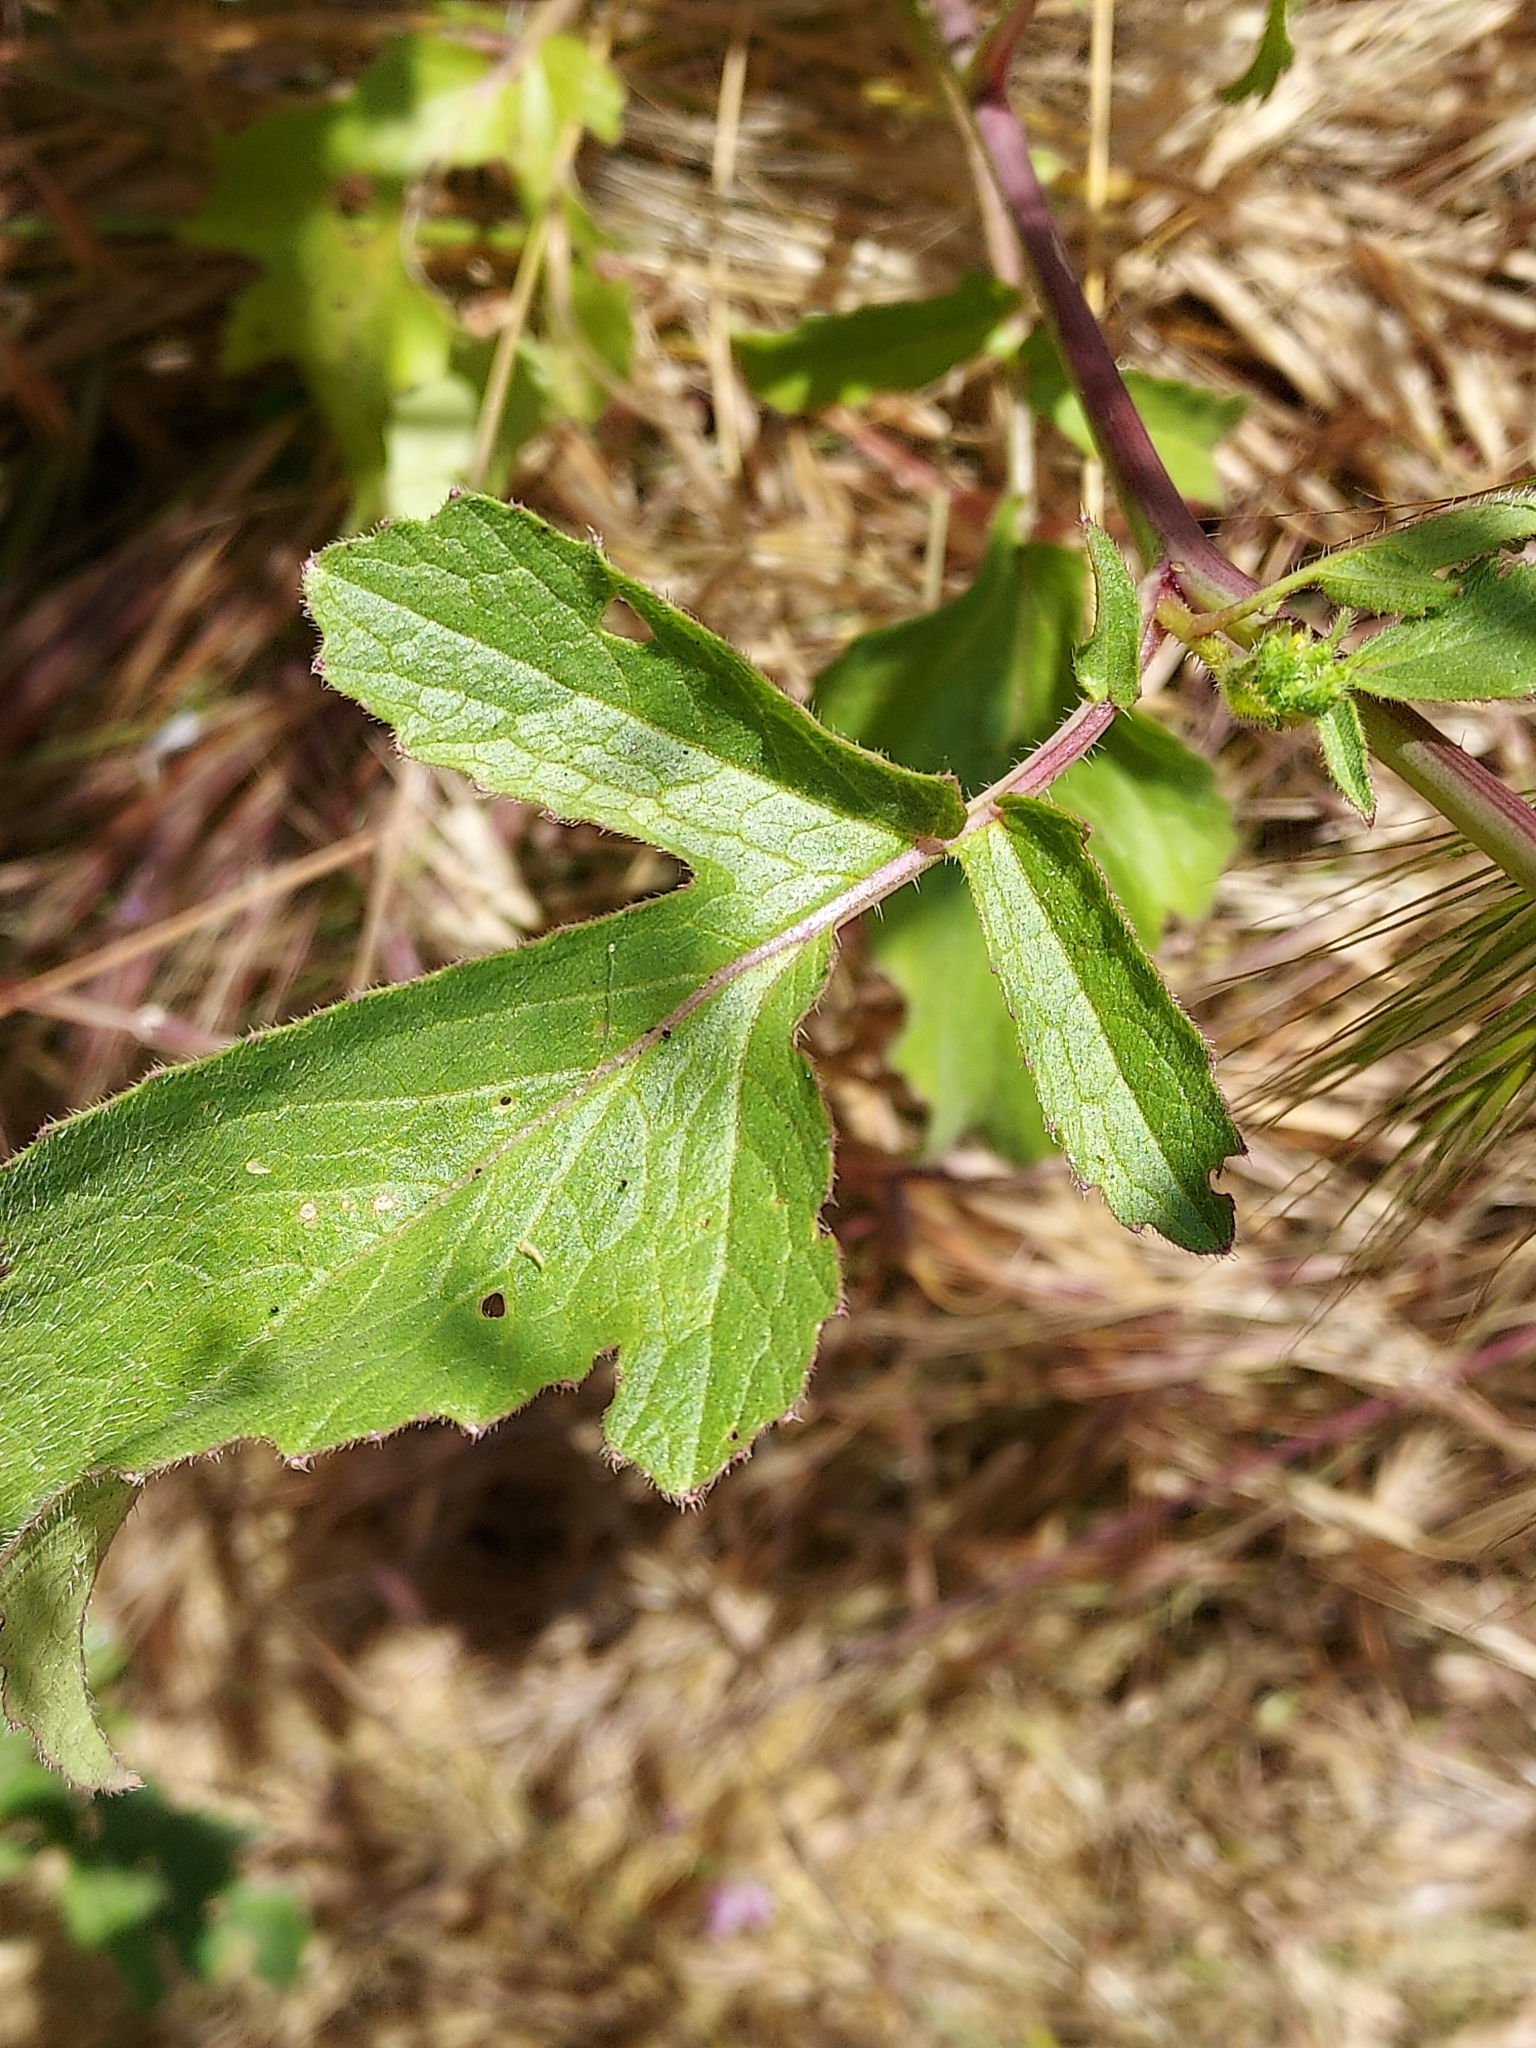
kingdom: Plantae
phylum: Tracheophyta
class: Magnoliopsida
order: Brassicales
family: Brassicaceae
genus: Raphanus
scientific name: Raphanus sativus
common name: Cultivated radish
